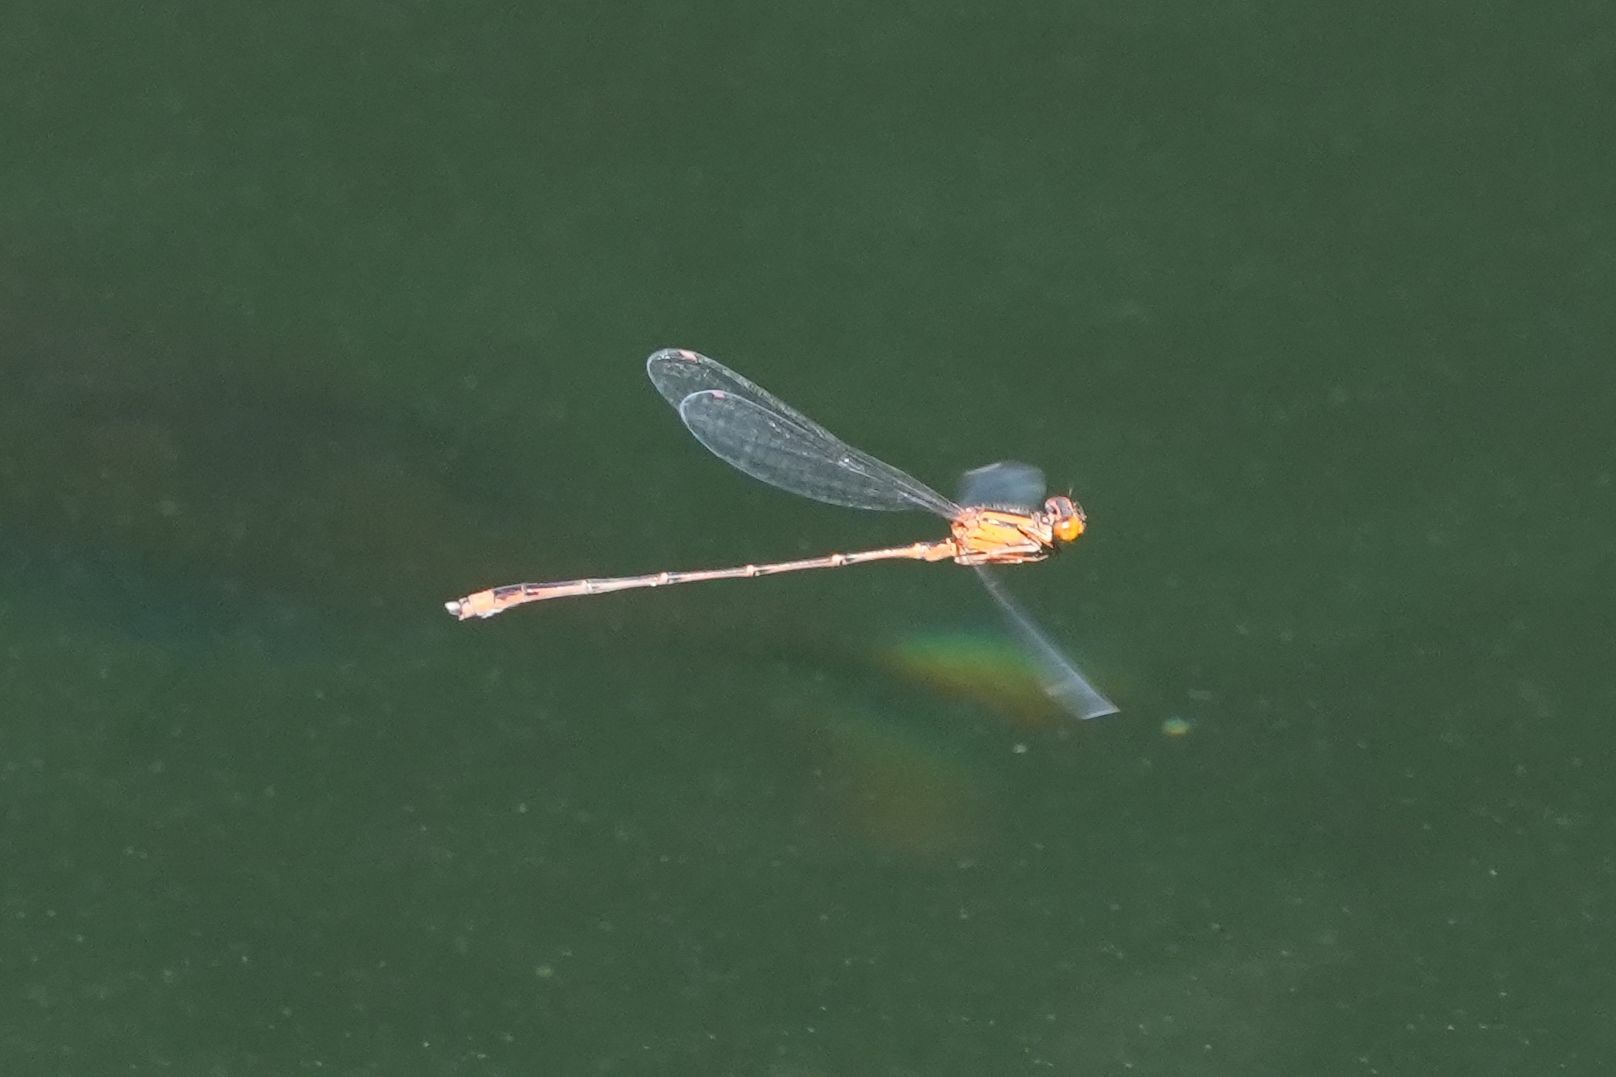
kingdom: Animalia
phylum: Arthropoda
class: Insecta
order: Odonata
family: Coenagrionidae
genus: Enallagma
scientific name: Enallagma signatum
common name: Orange bluet
